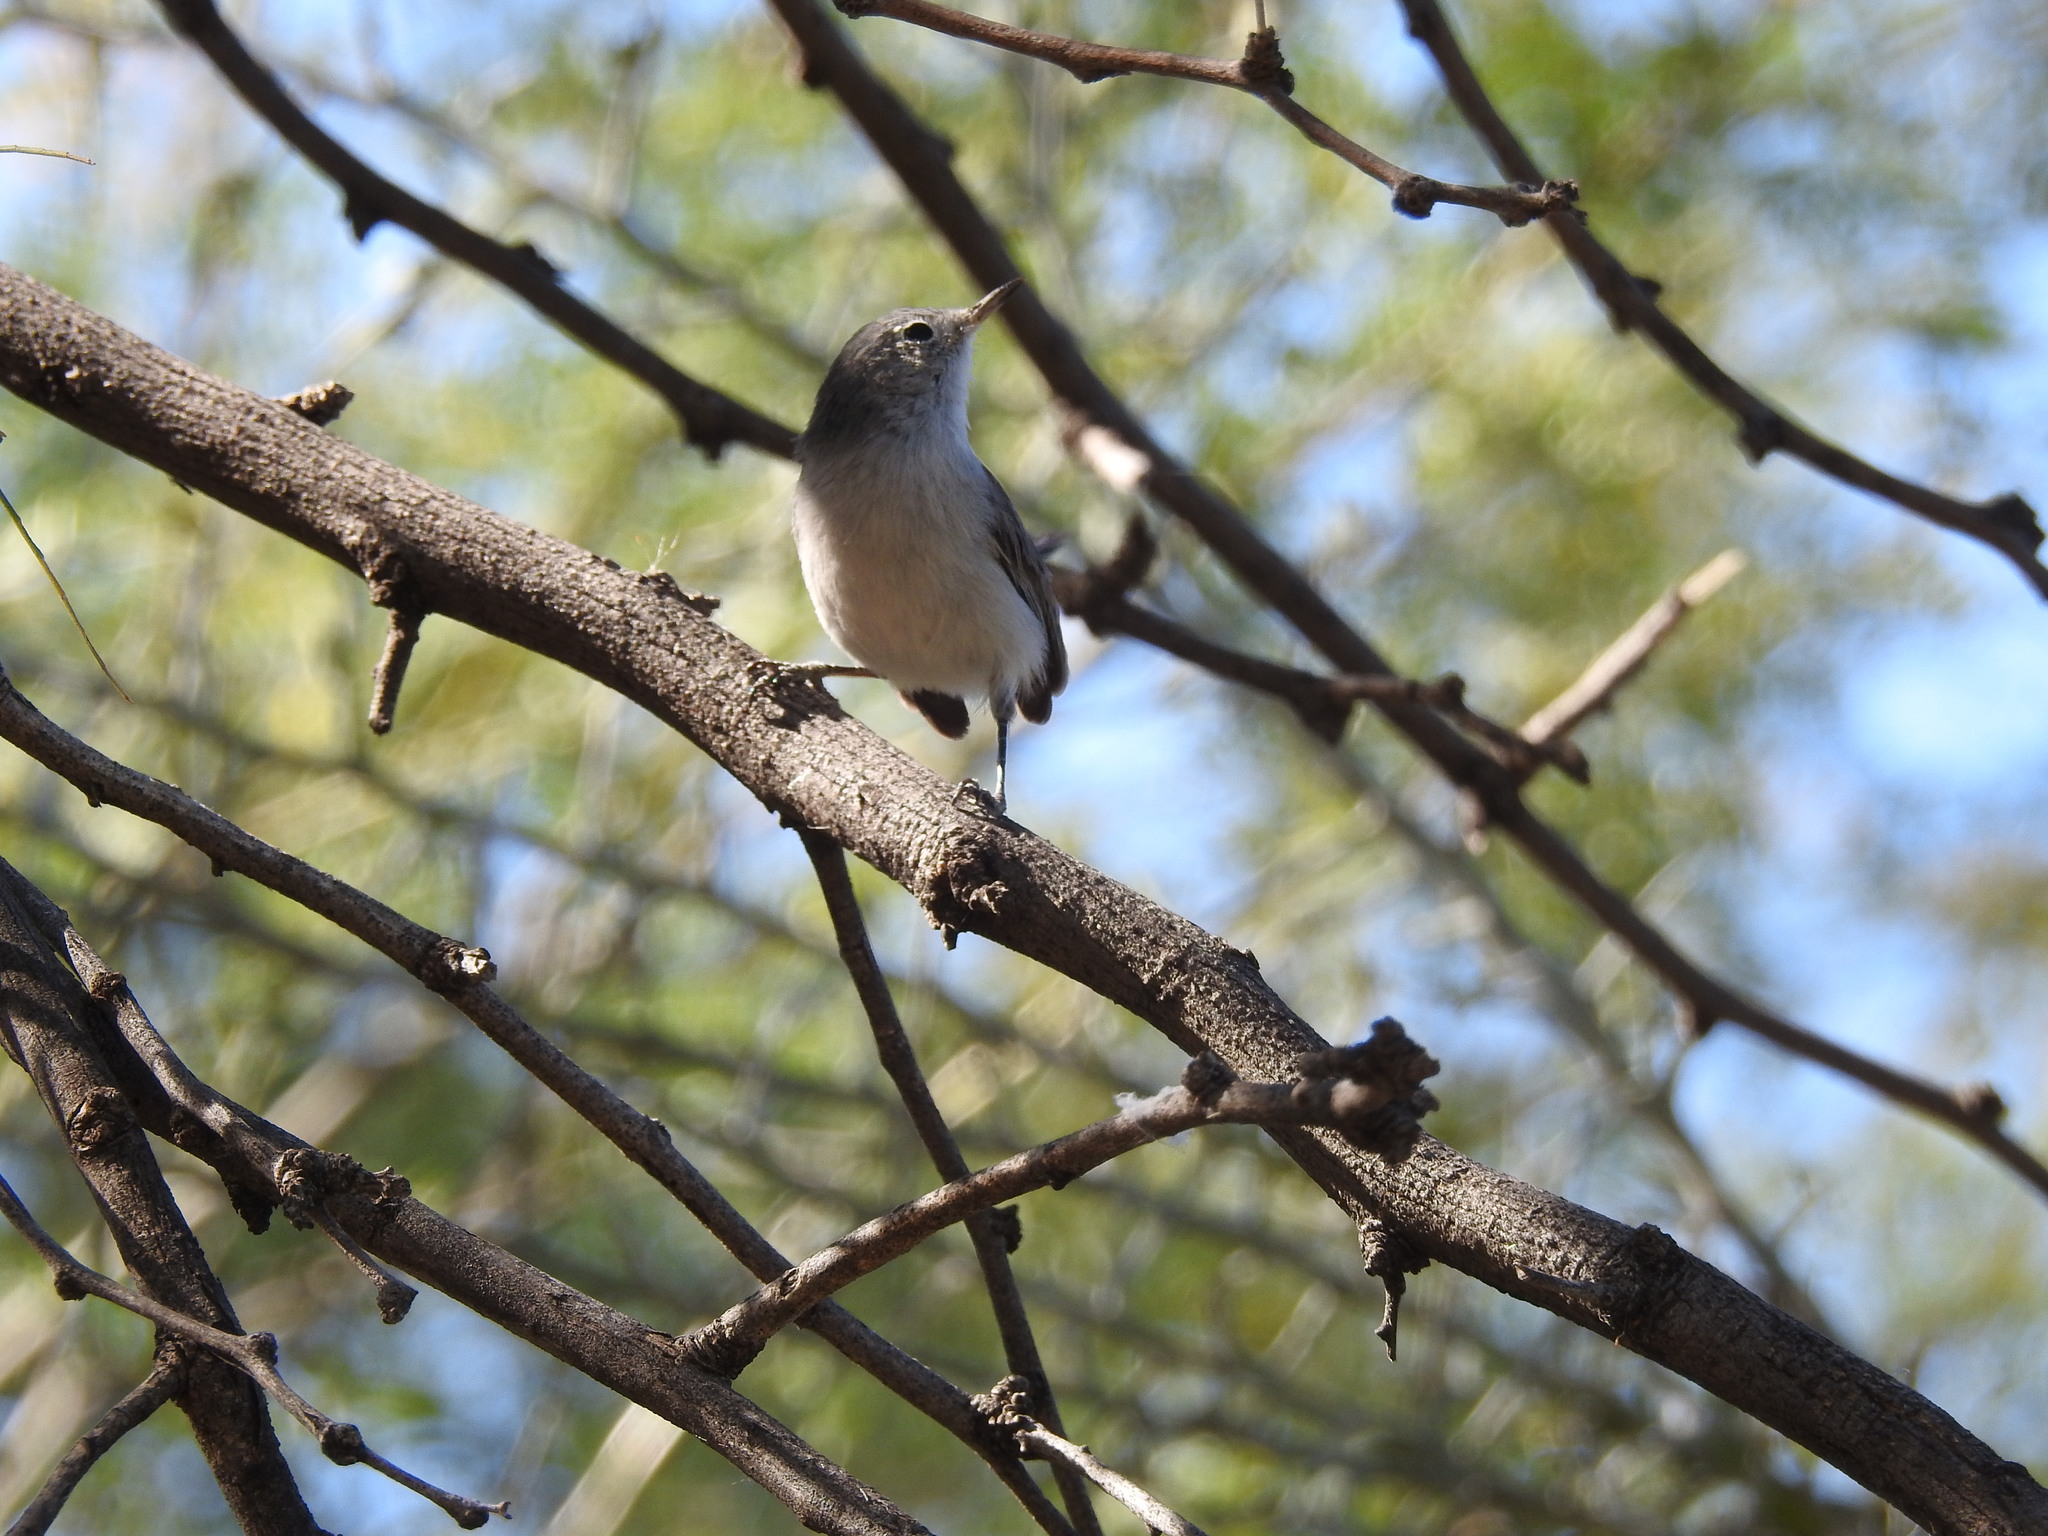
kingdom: Animalia
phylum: Chordata
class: Aves
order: Passeriformes
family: Polioptilidae
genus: Polioptila
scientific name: Polioptila caerulea
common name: Blue-gray gnatcatcher
